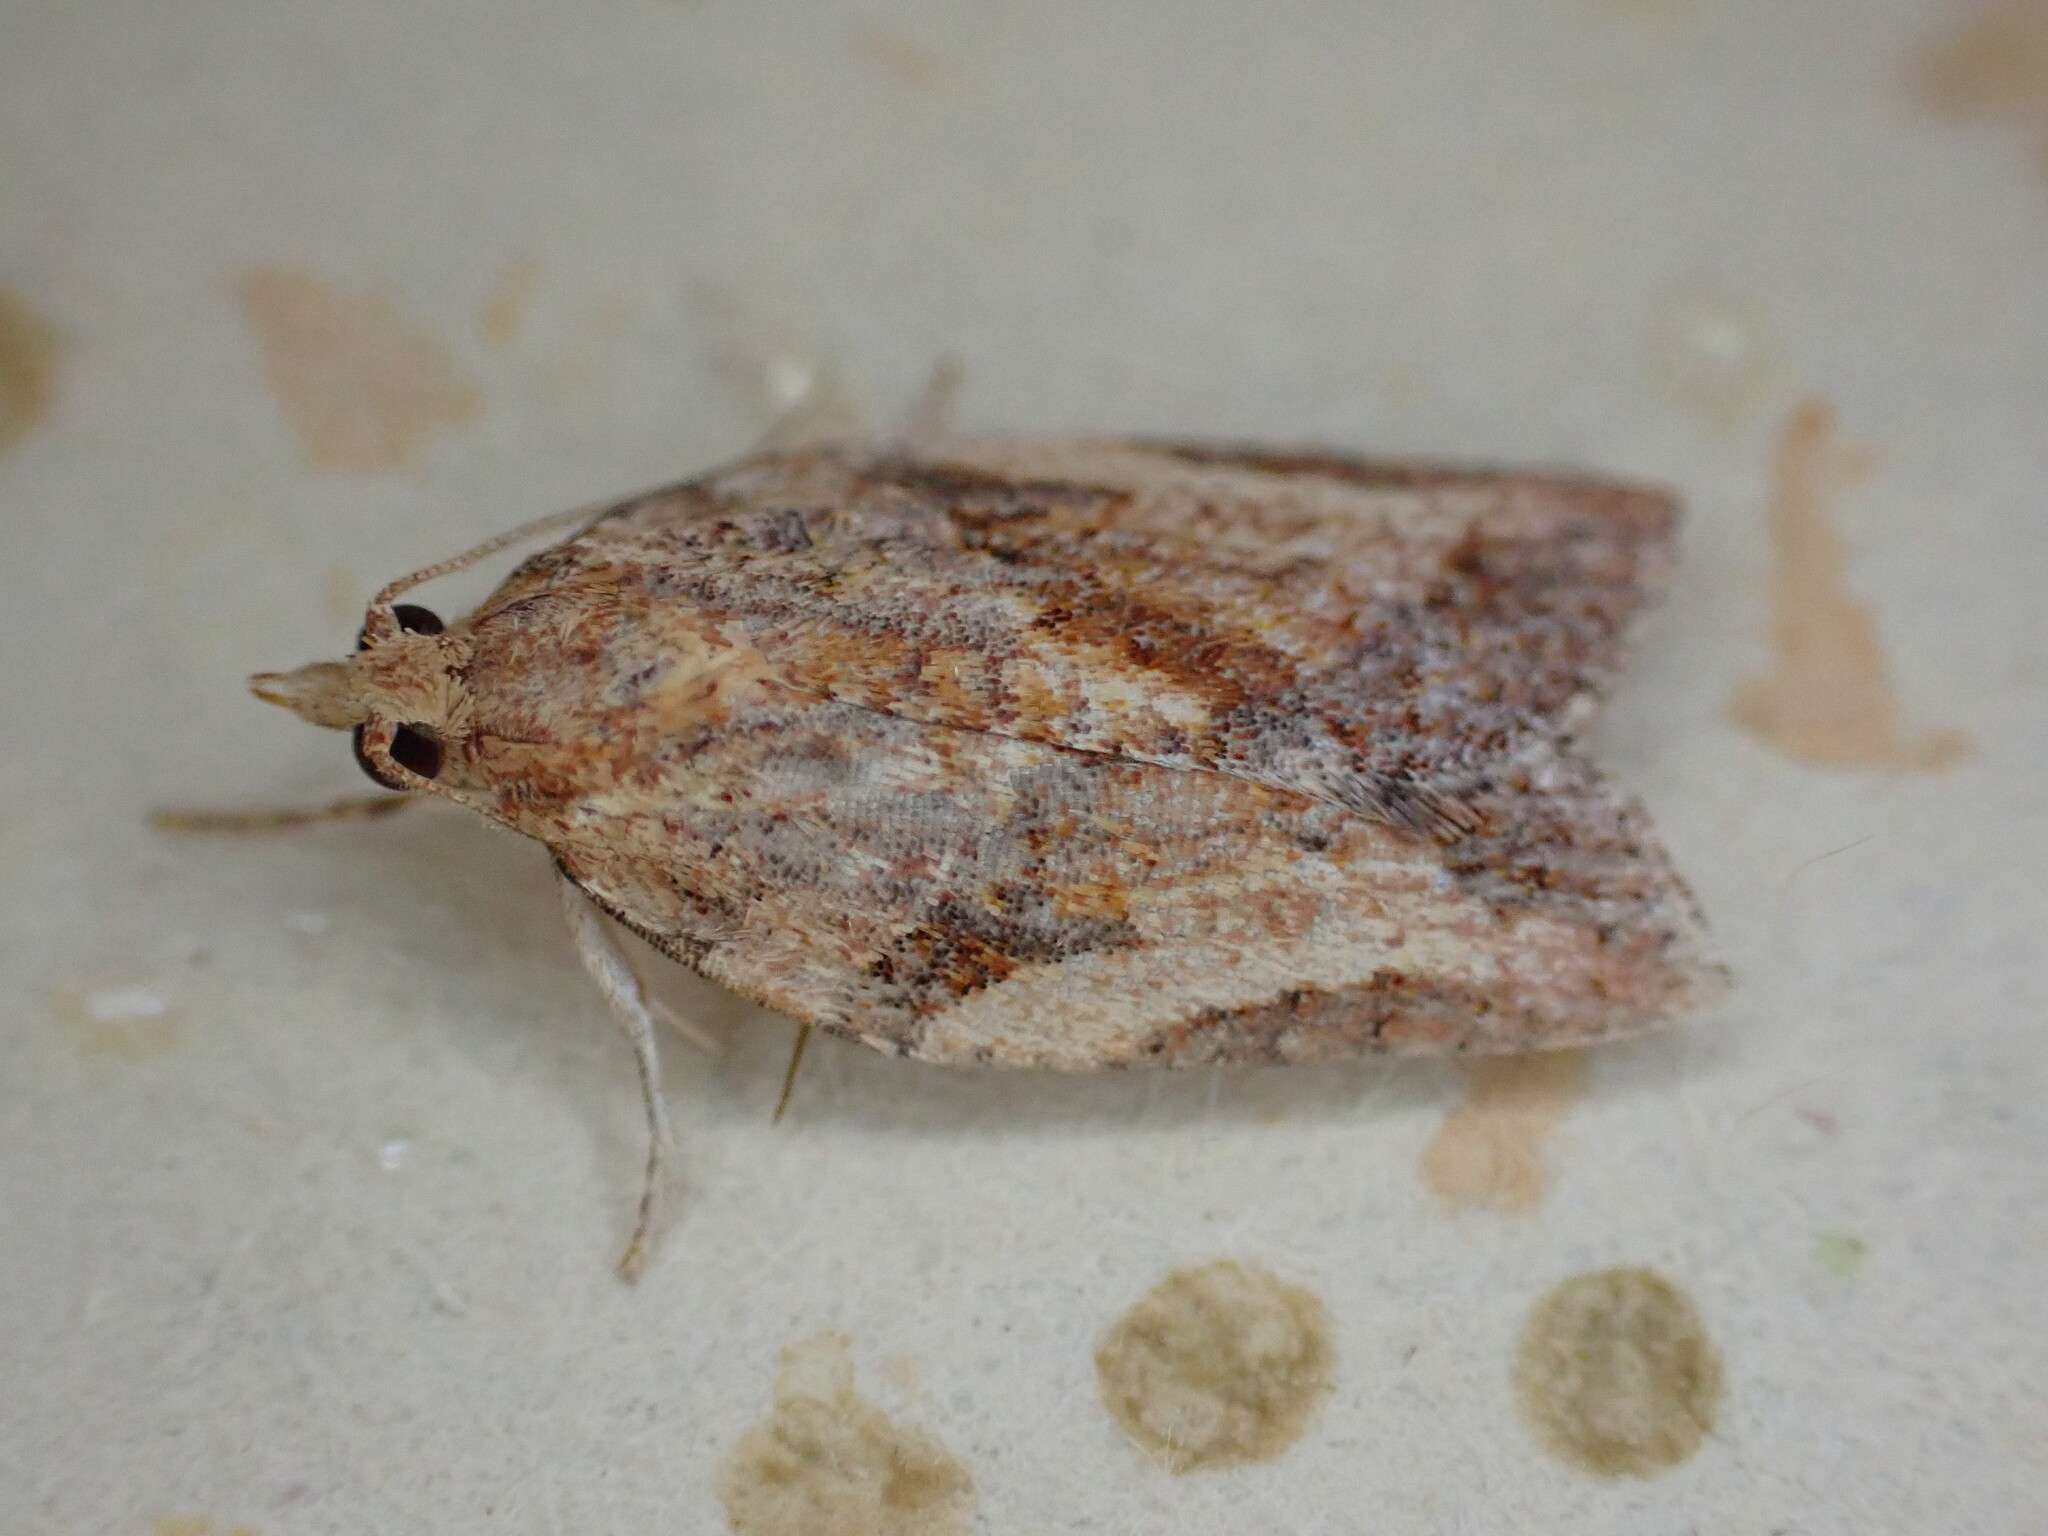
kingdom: Animalia
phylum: Arthropoda
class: Insecta
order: Lepidoptera
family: Tortricidae
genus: Epiphyas
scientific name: Epiphyas postvittana
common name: Light brown apple moth
